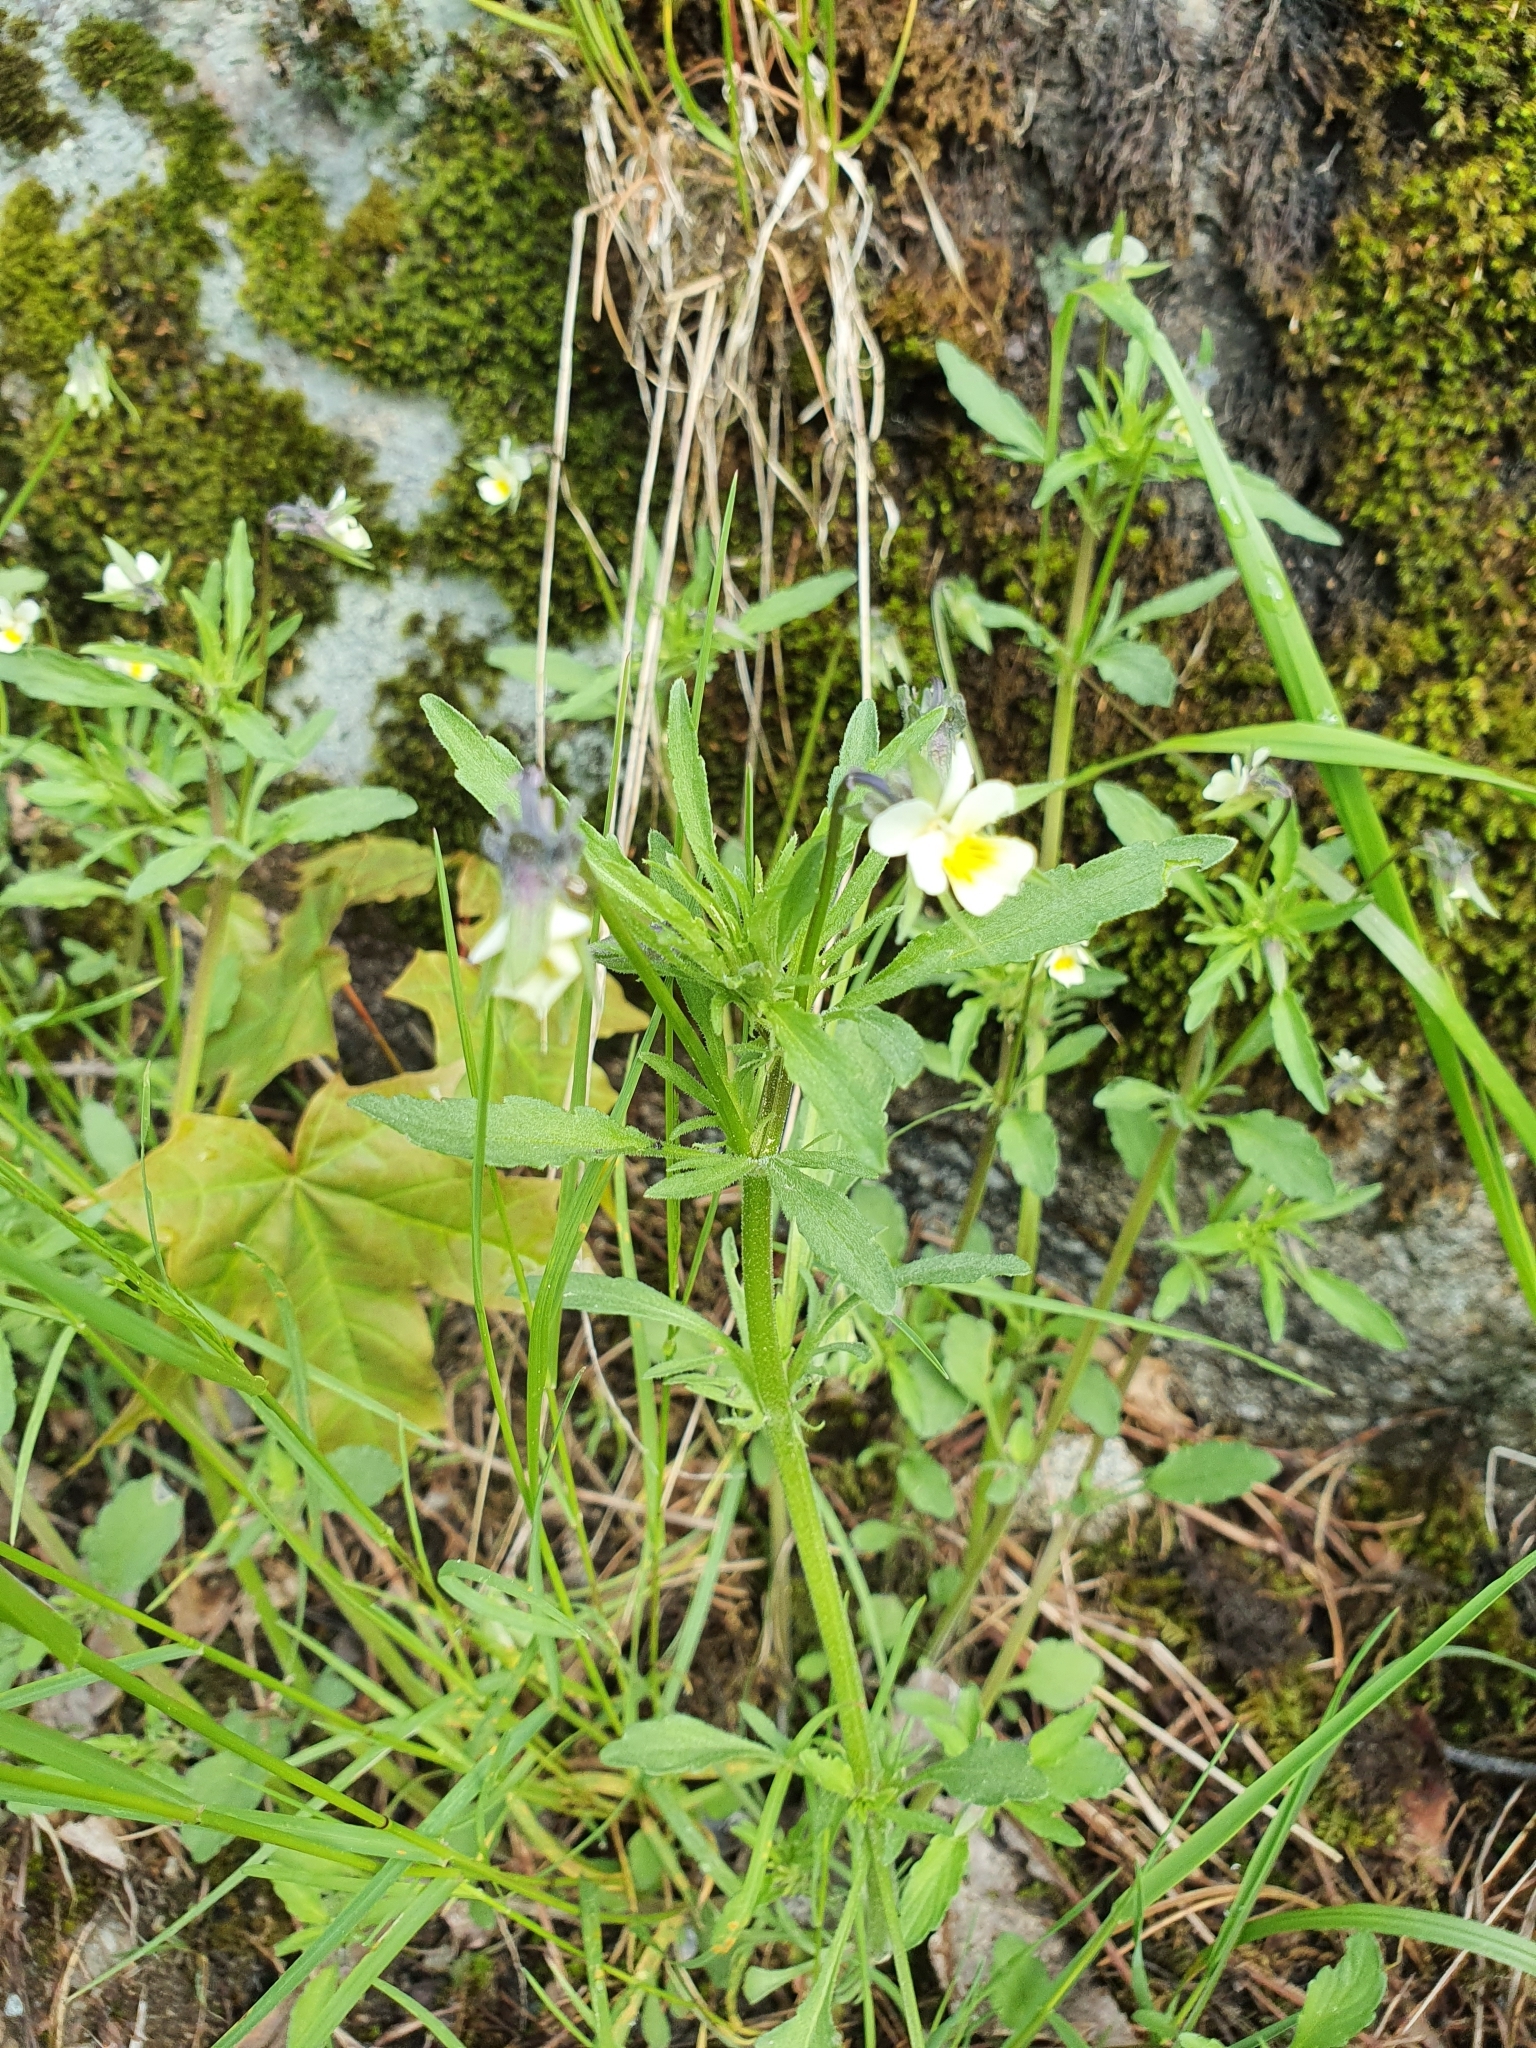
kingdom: Plantae
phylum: Tracheophyta
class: Magnoliopsida
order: Malpighiales
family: Violaceae
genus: Viola
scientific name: Viola arvensis
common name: Field pansy
